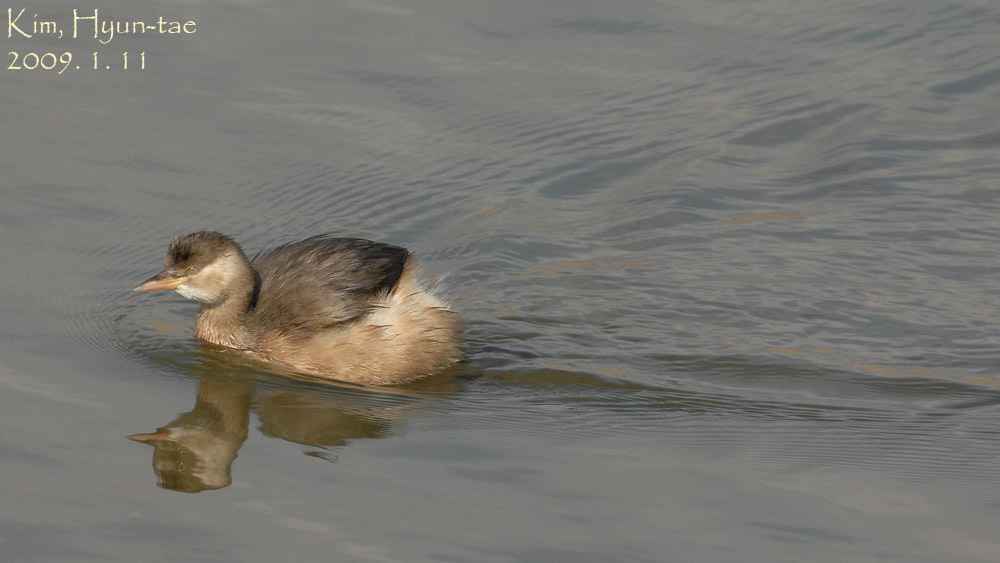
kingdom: Animalia
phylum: Chordata
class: Aves
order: Podicipediformes
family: Podicipedidae
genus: Tachybaptus
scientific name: Tachybaptus ruficollis
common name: Little grebe
